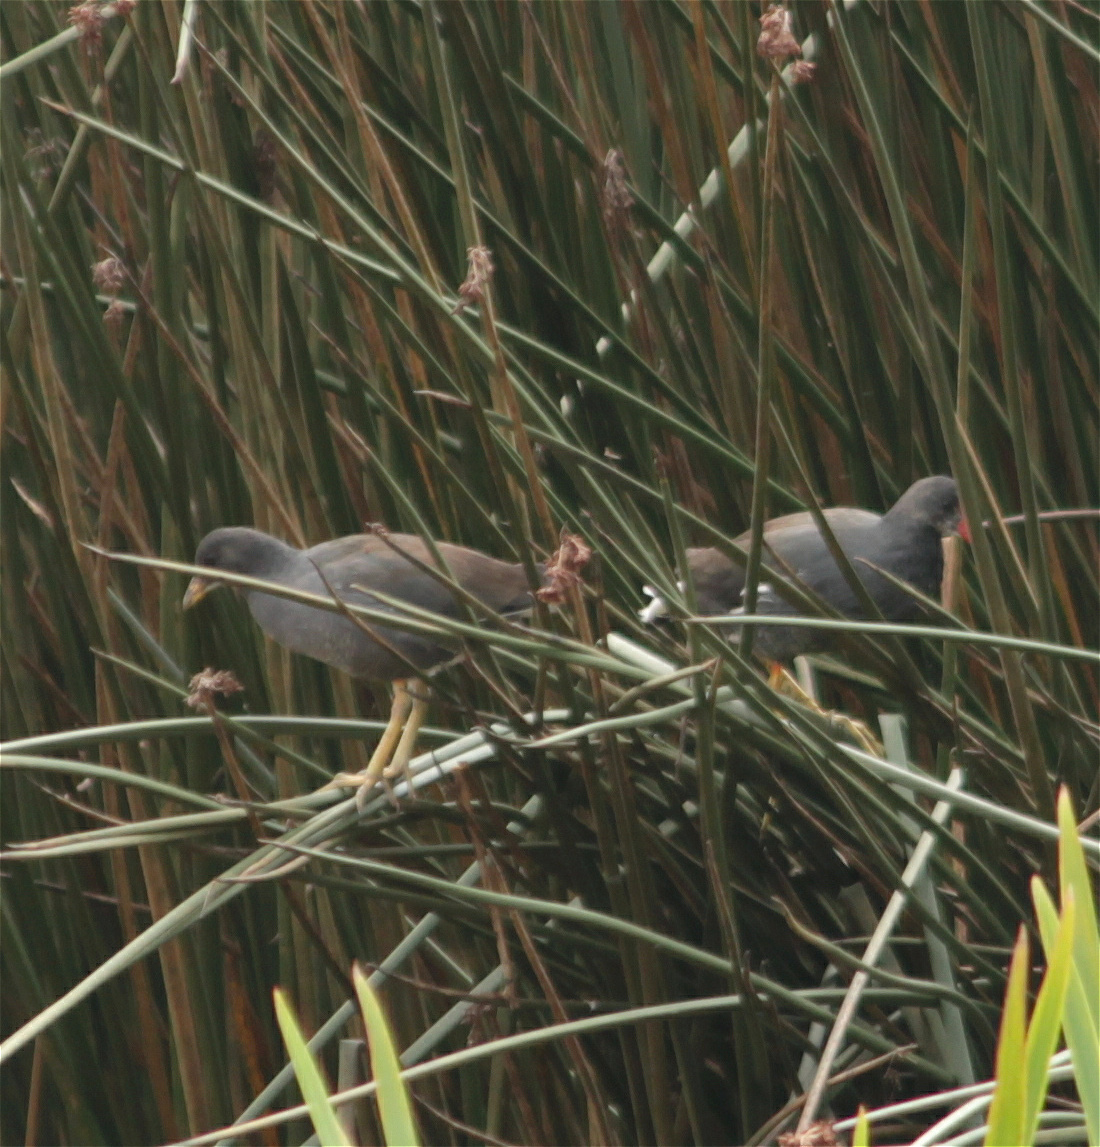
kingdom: Animalia
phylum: Chordata
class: Aves
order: Gruiformes
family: Rallidae
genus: Gallinula
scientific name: Gallinula chloropus
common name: Common moorhen
